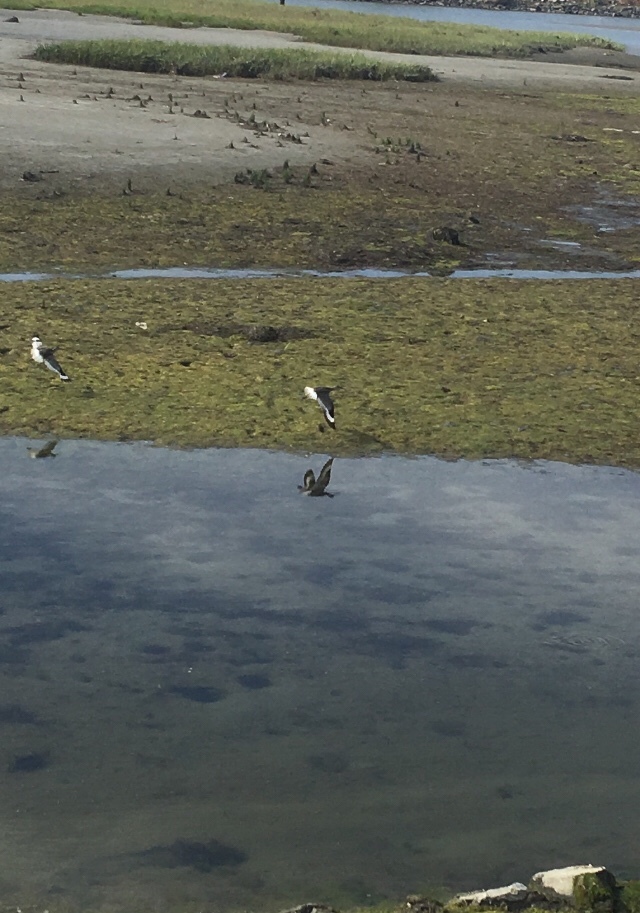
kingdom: Animalia
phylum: Chordata
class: Aves
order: Charadriiformes
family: Scolopacidae
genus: Tringa
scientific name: Tringa semipalmata
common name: Willet
